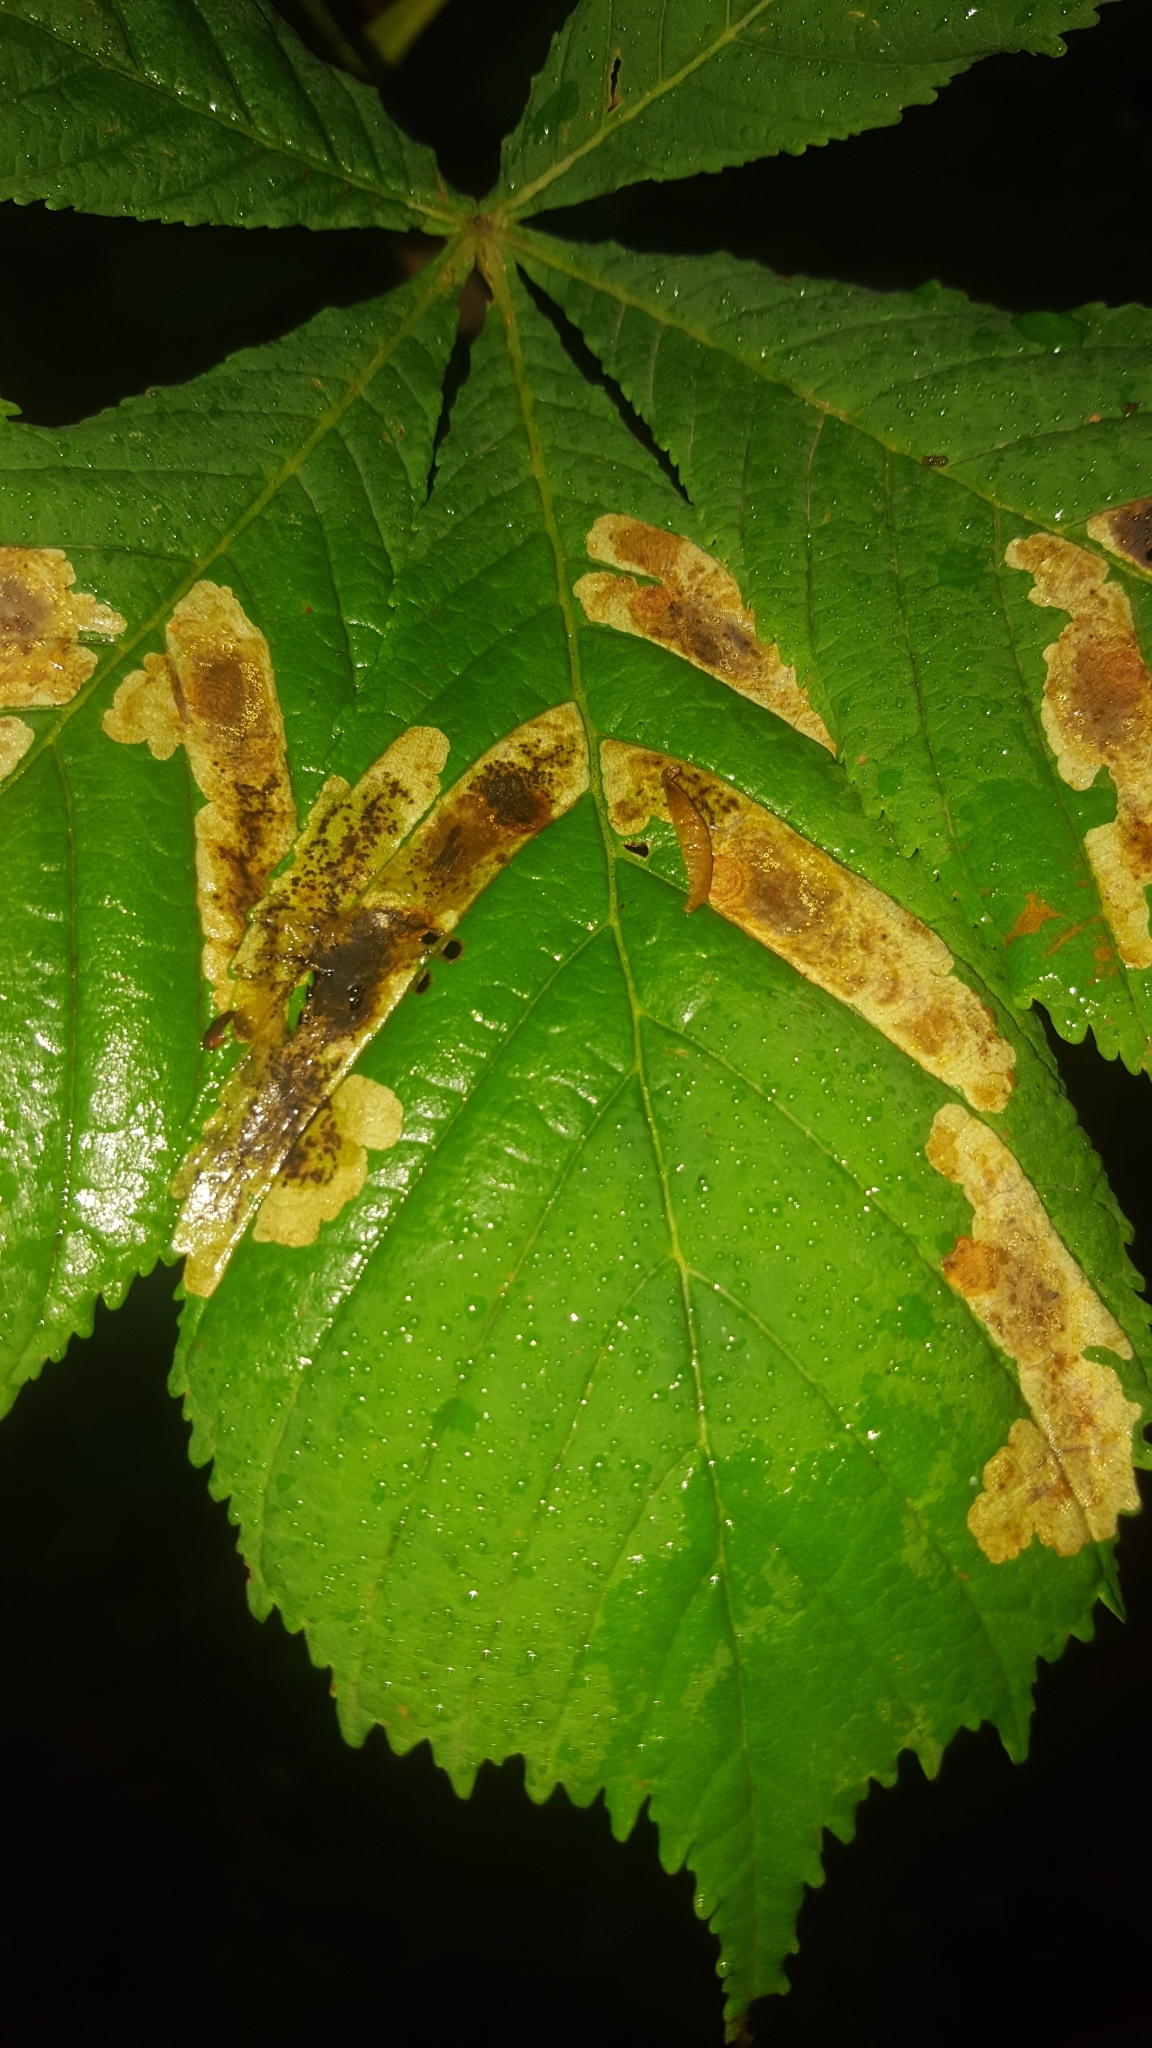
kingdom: Animalia
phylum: Arthropoda
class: Insecta
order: Lepidoptera
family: Gracillariidae
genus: Cameraria
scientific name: Cameraria ohridella
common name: Horse-chestnut leaf-miner
